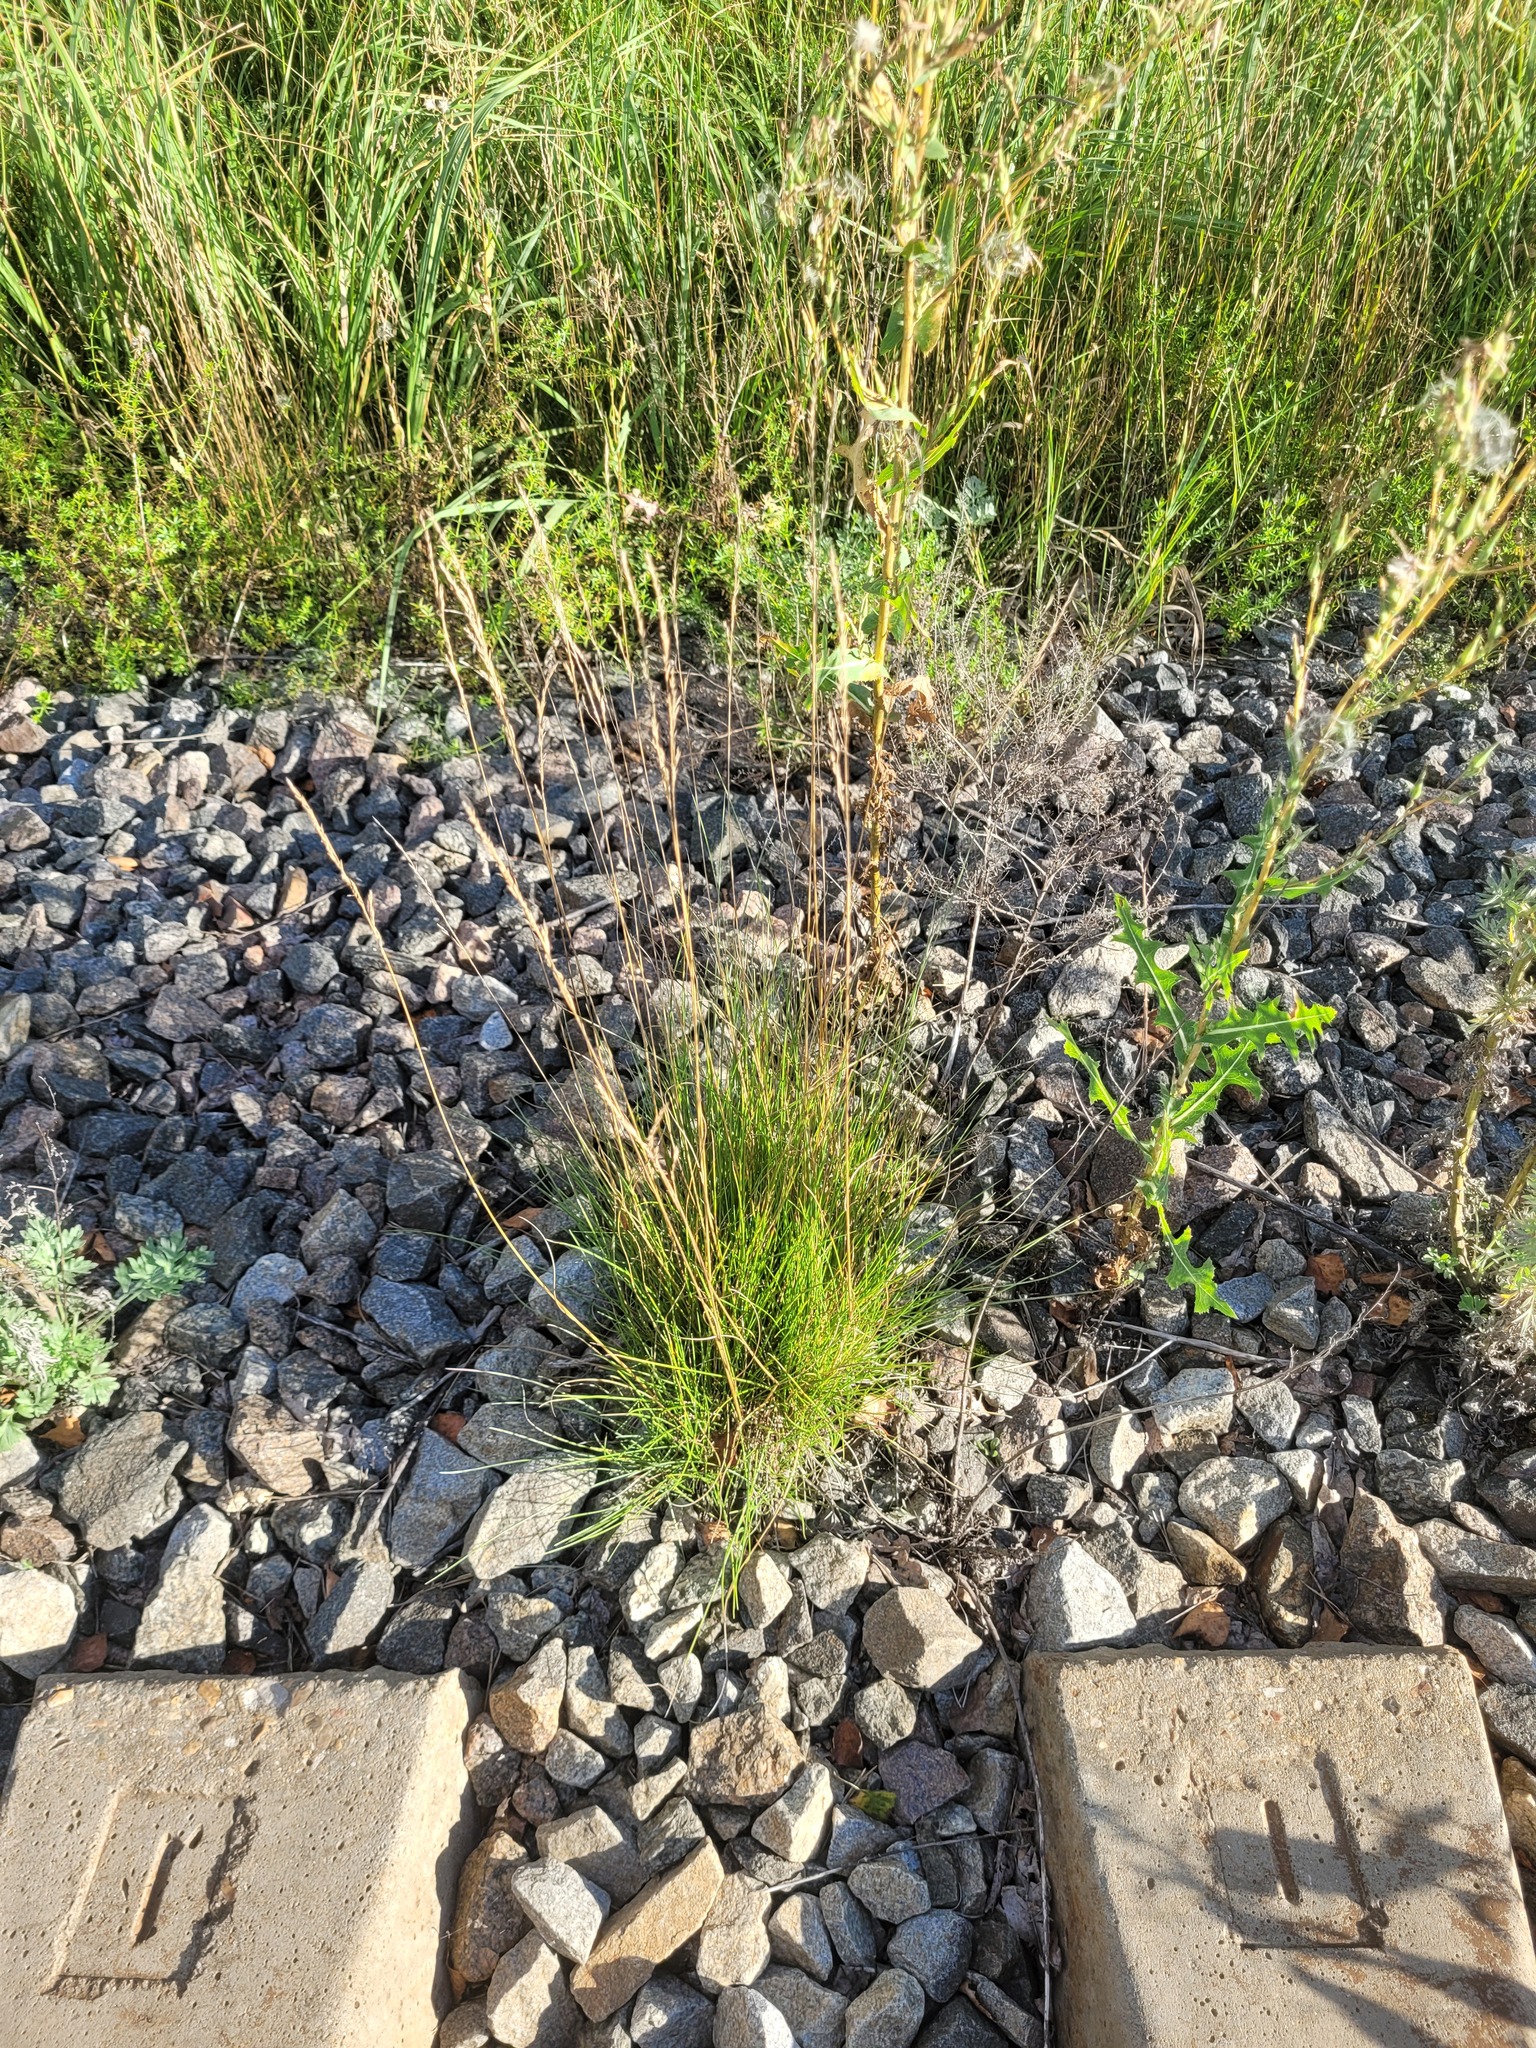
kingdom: Plantae
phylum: Tracheophyta
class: Liliopsida
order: Poales
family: Poaceae
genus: Festuca
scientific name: Festuca rubra
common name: Red fescue
